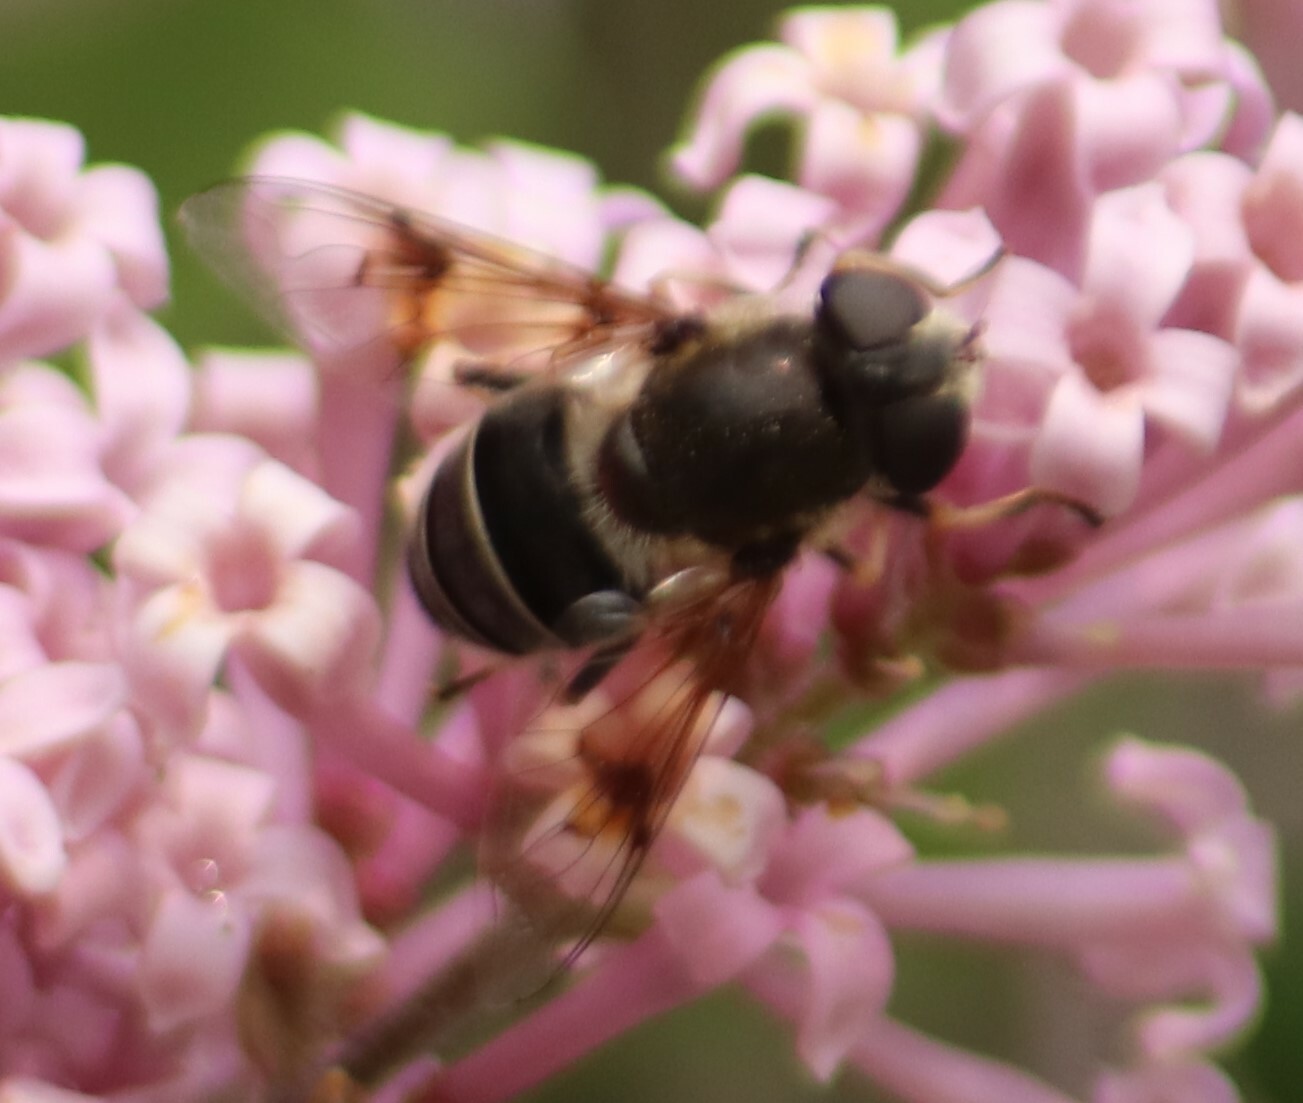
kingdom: Animalia
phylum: Arthropoda
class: Insecta
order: Diptera
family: Syrphidae
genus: Eristalis
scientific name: Eristalis rupium
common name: Hover fly
